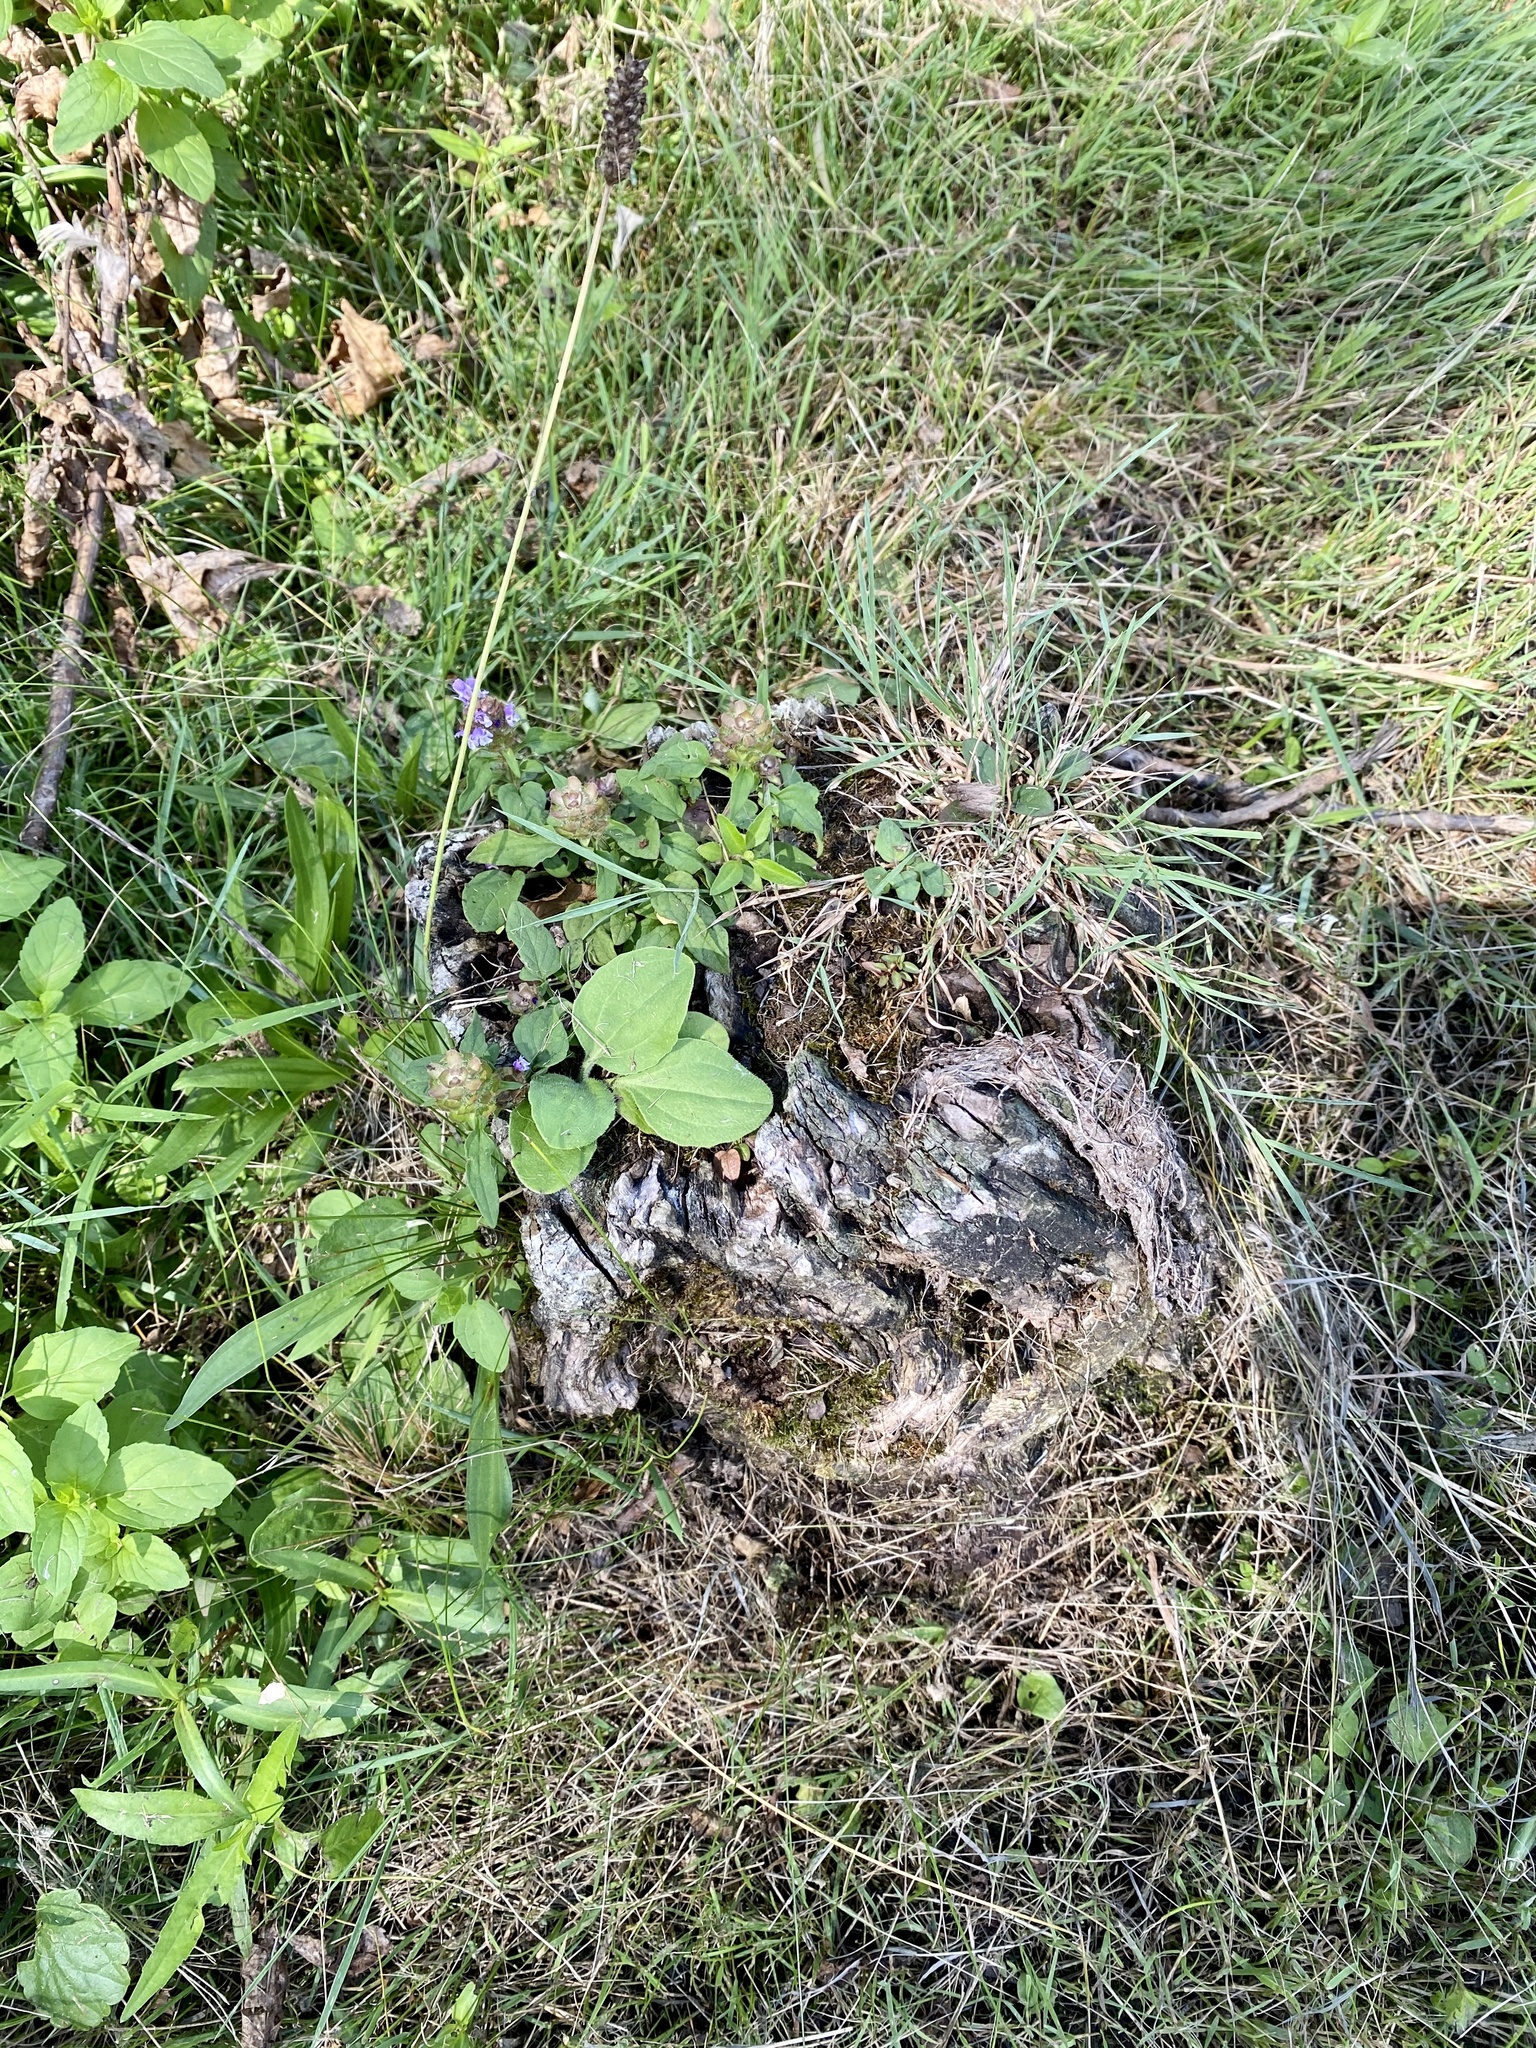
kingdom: Plantae
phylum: Tracheophyta
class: Magnoliopsida
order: Lamiales
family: Lamiaceae
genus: Prunella
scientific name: Prunella vulgaris
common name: Heal-all
